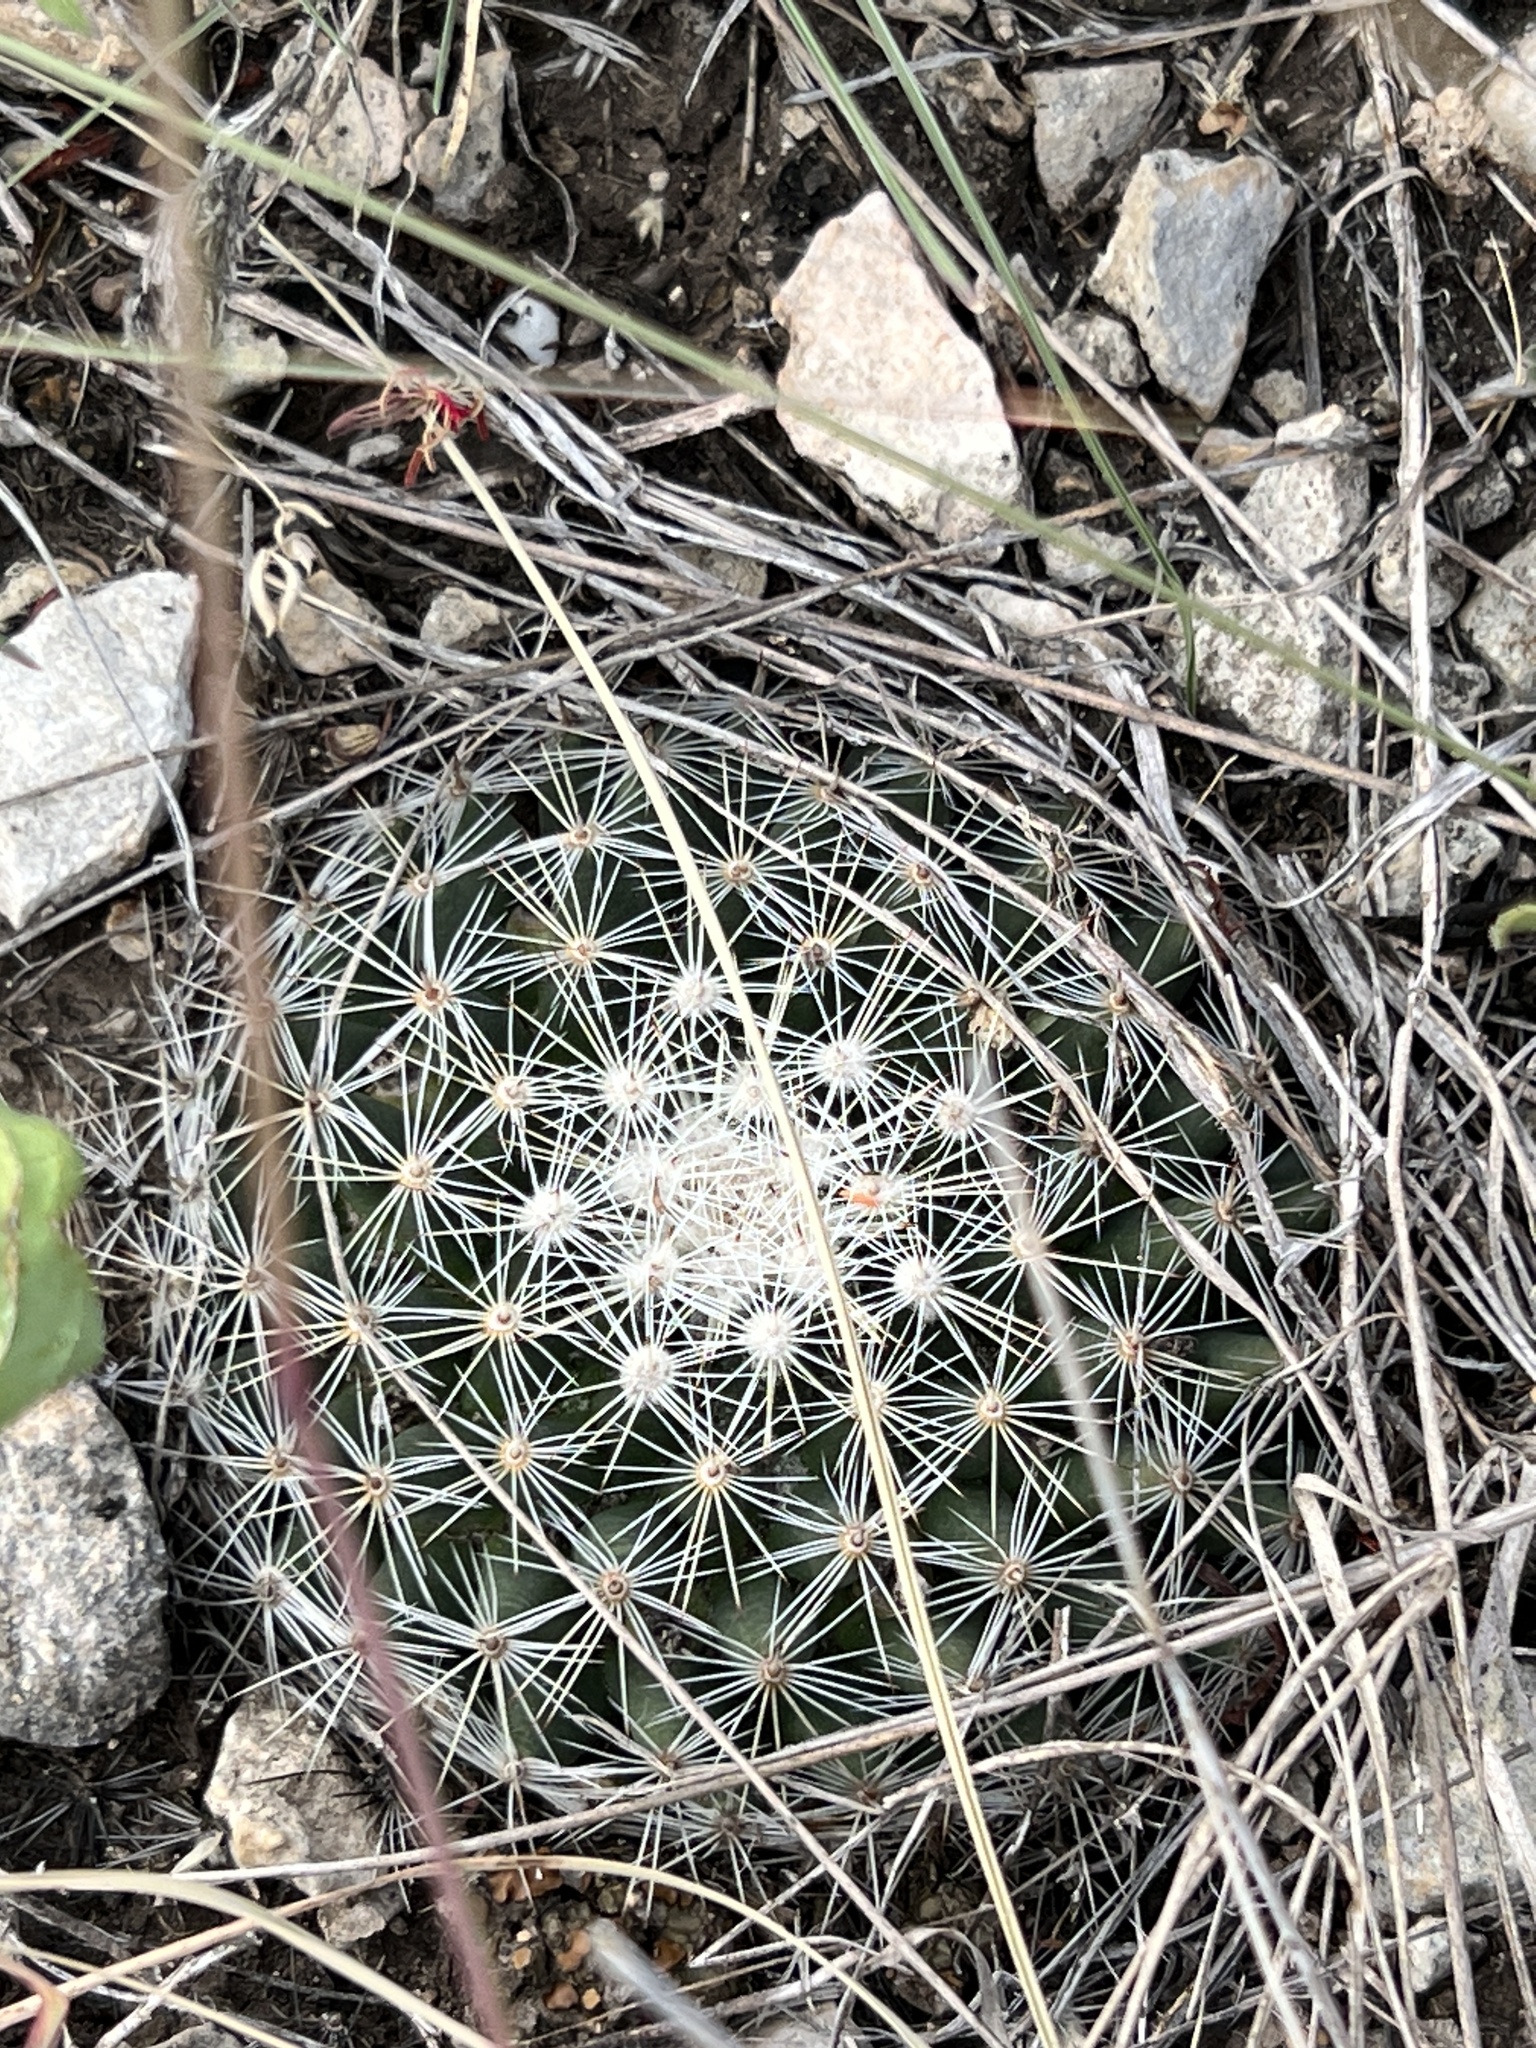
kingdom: Plantae
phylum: Tracheophyta
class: Magnoliopsida
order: Caryophyllales
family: Cactaceae
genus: Mammillaria
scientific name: Mammillaria heyderi
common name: Little nipple cactus
